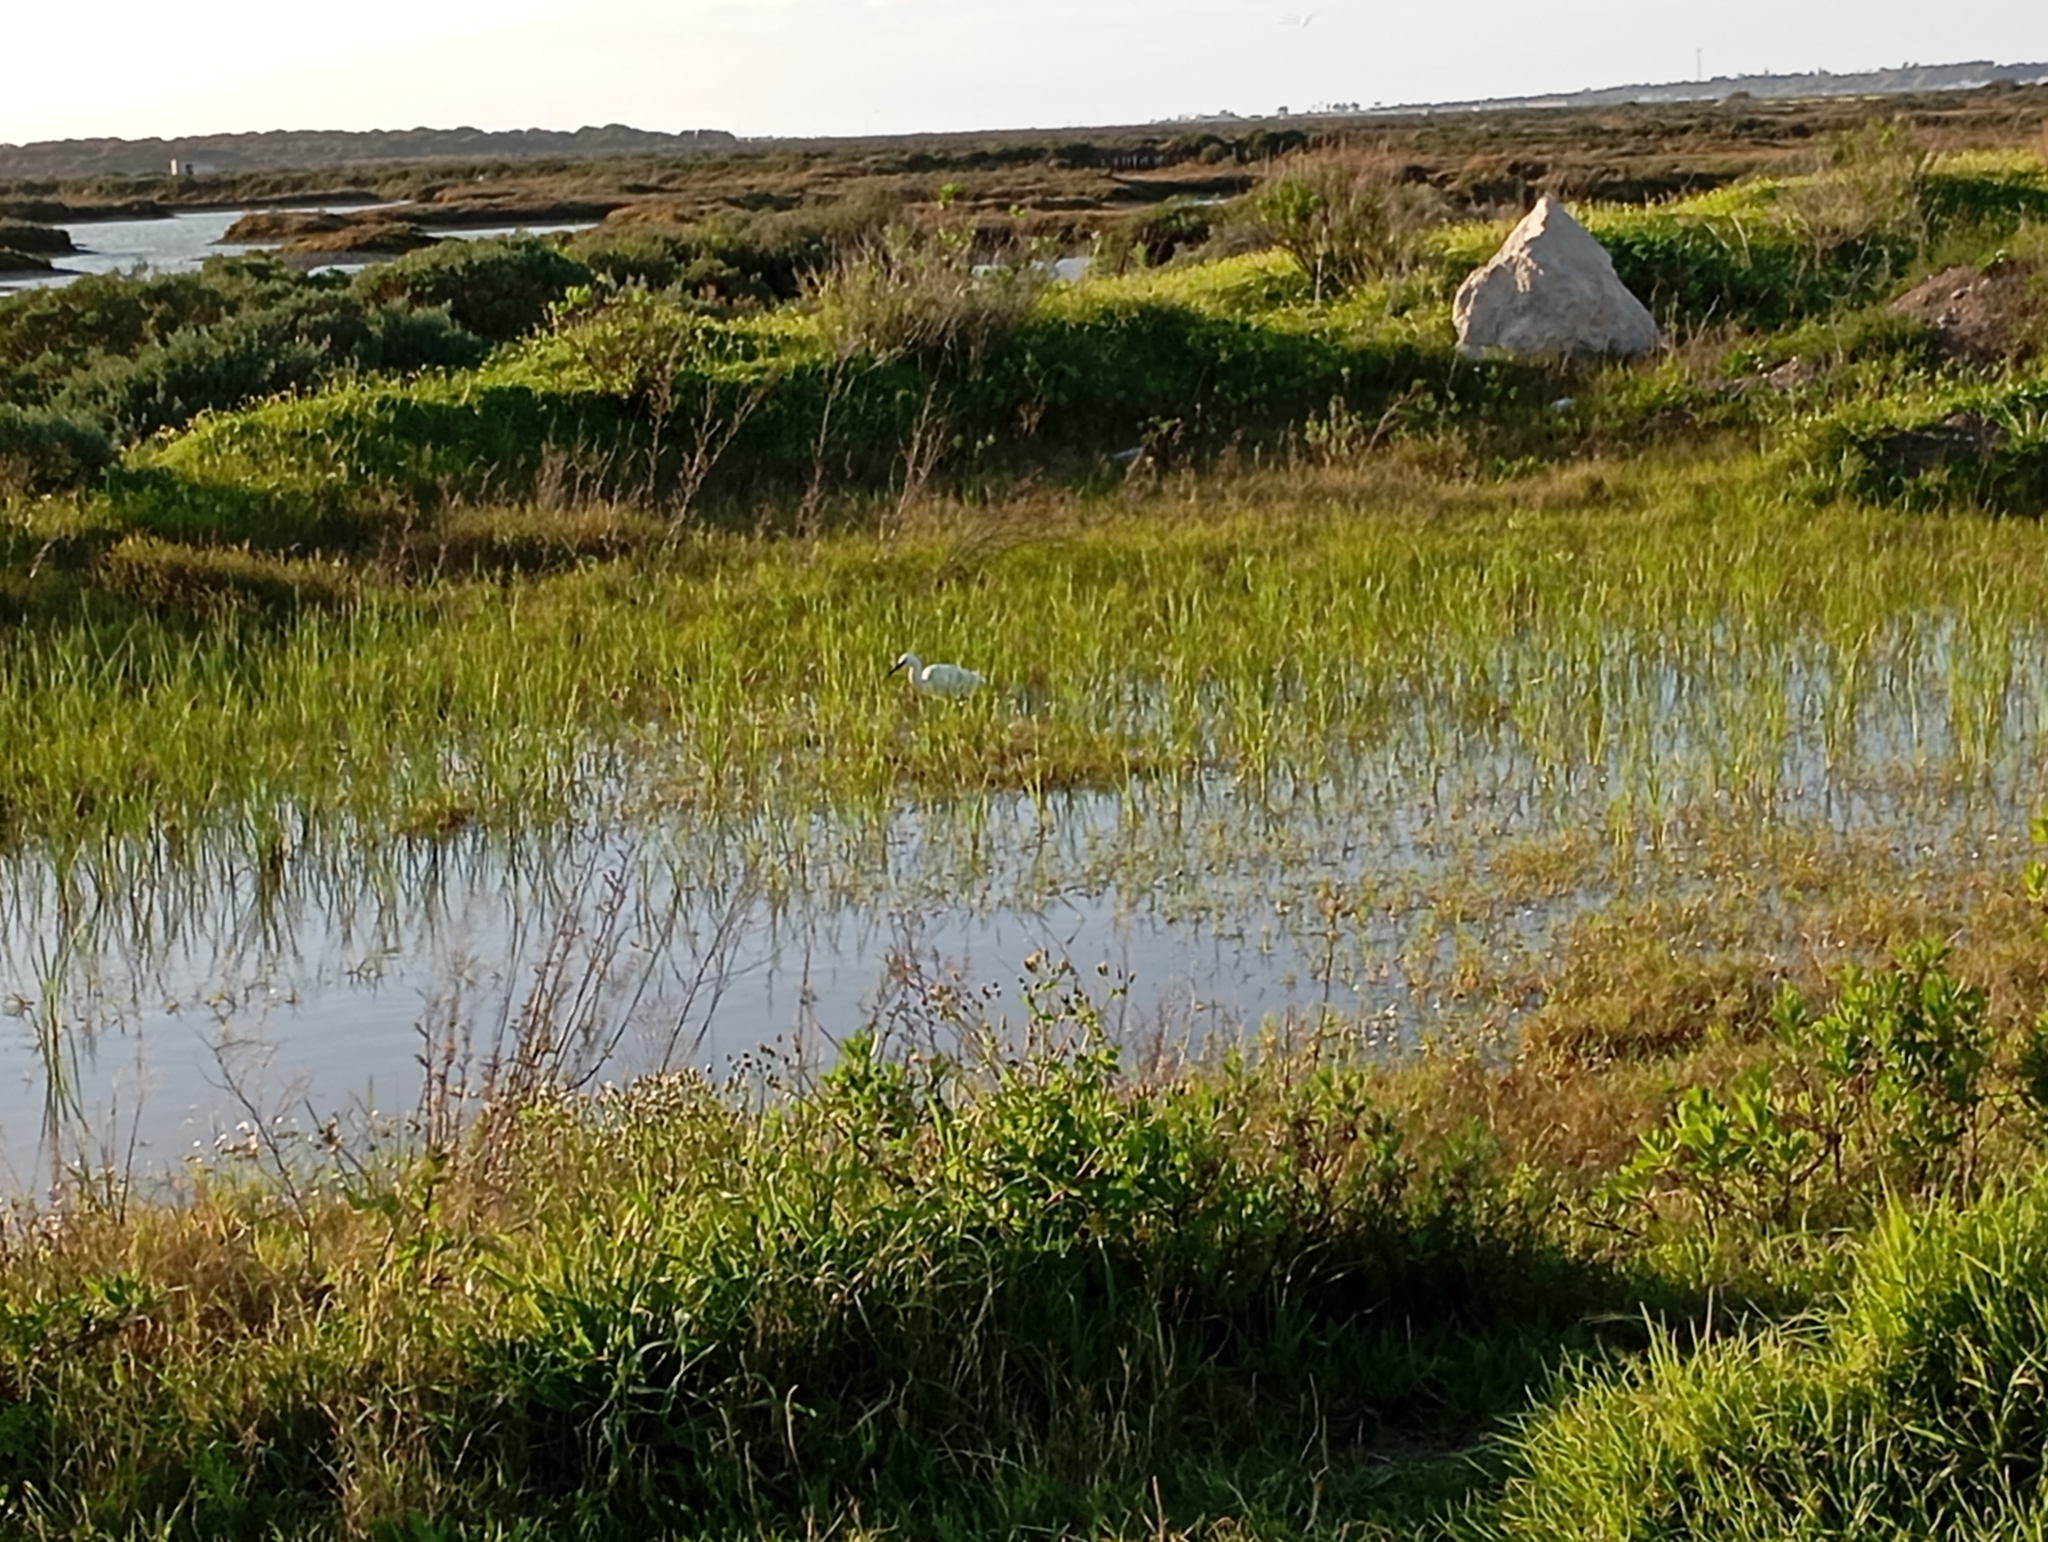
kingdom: Animalia
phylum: Chordata
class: Aves
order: Pelecaniformes
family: Ardeidae
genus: Egretta
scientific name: Egretta garzetta
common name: Little egret
